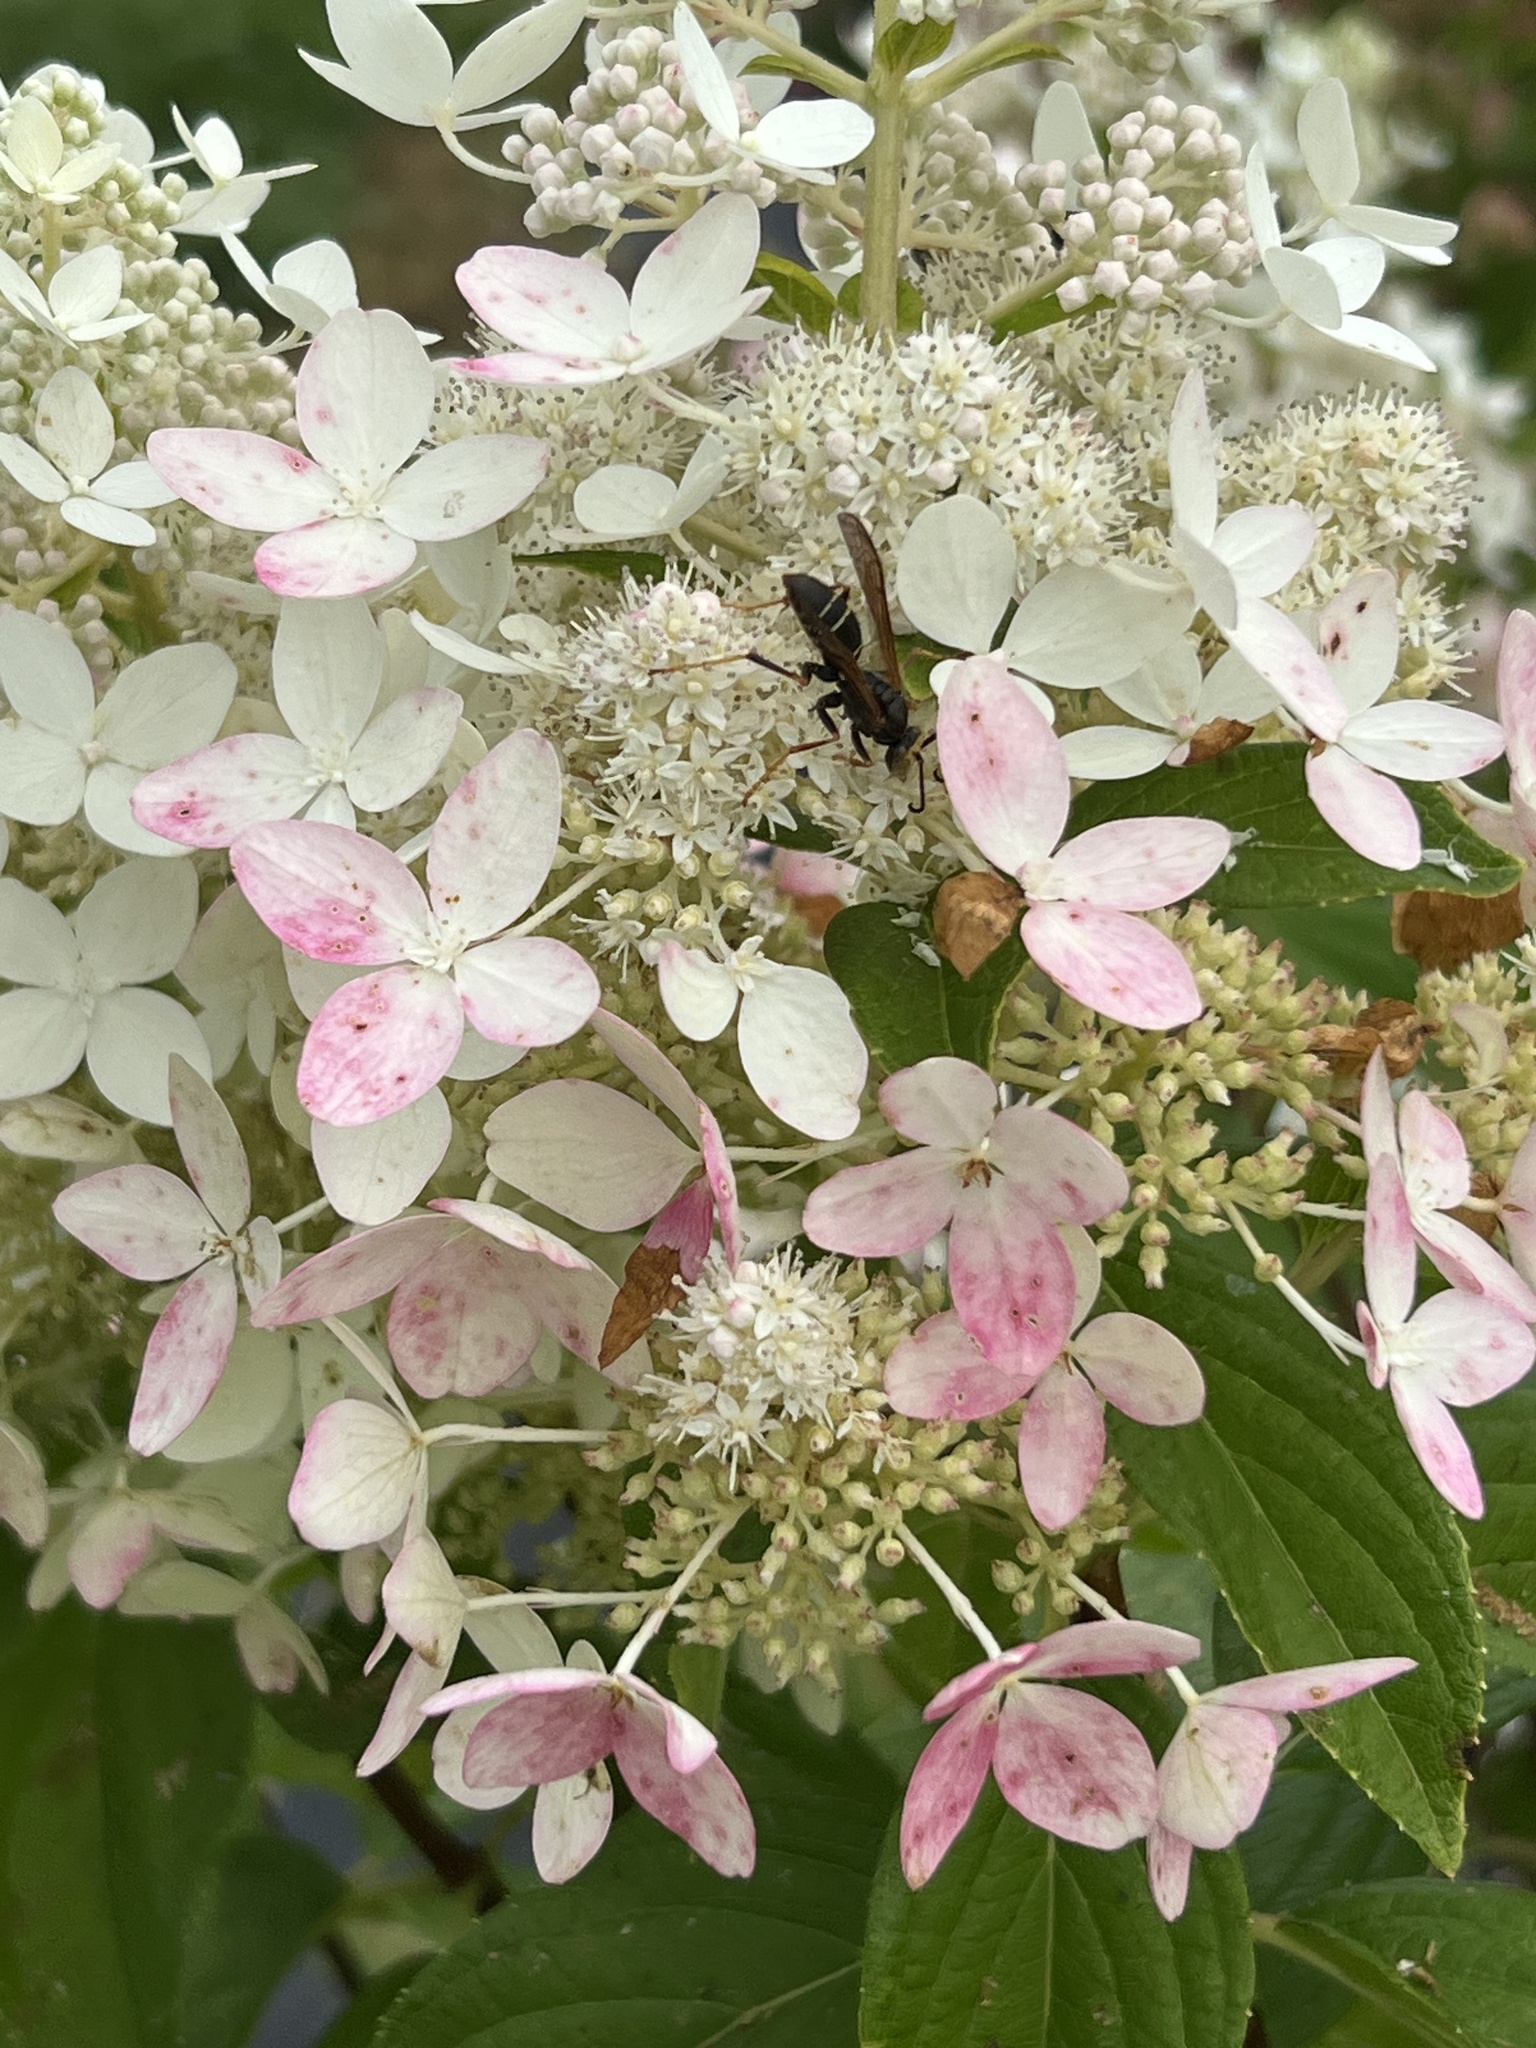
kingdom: Animalia
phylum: Arthropoda
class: Insecta
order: Hymenoptera
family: Eumenidae
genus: Polistes
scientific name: Polistes fuscatus
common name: Dark paper wasp
